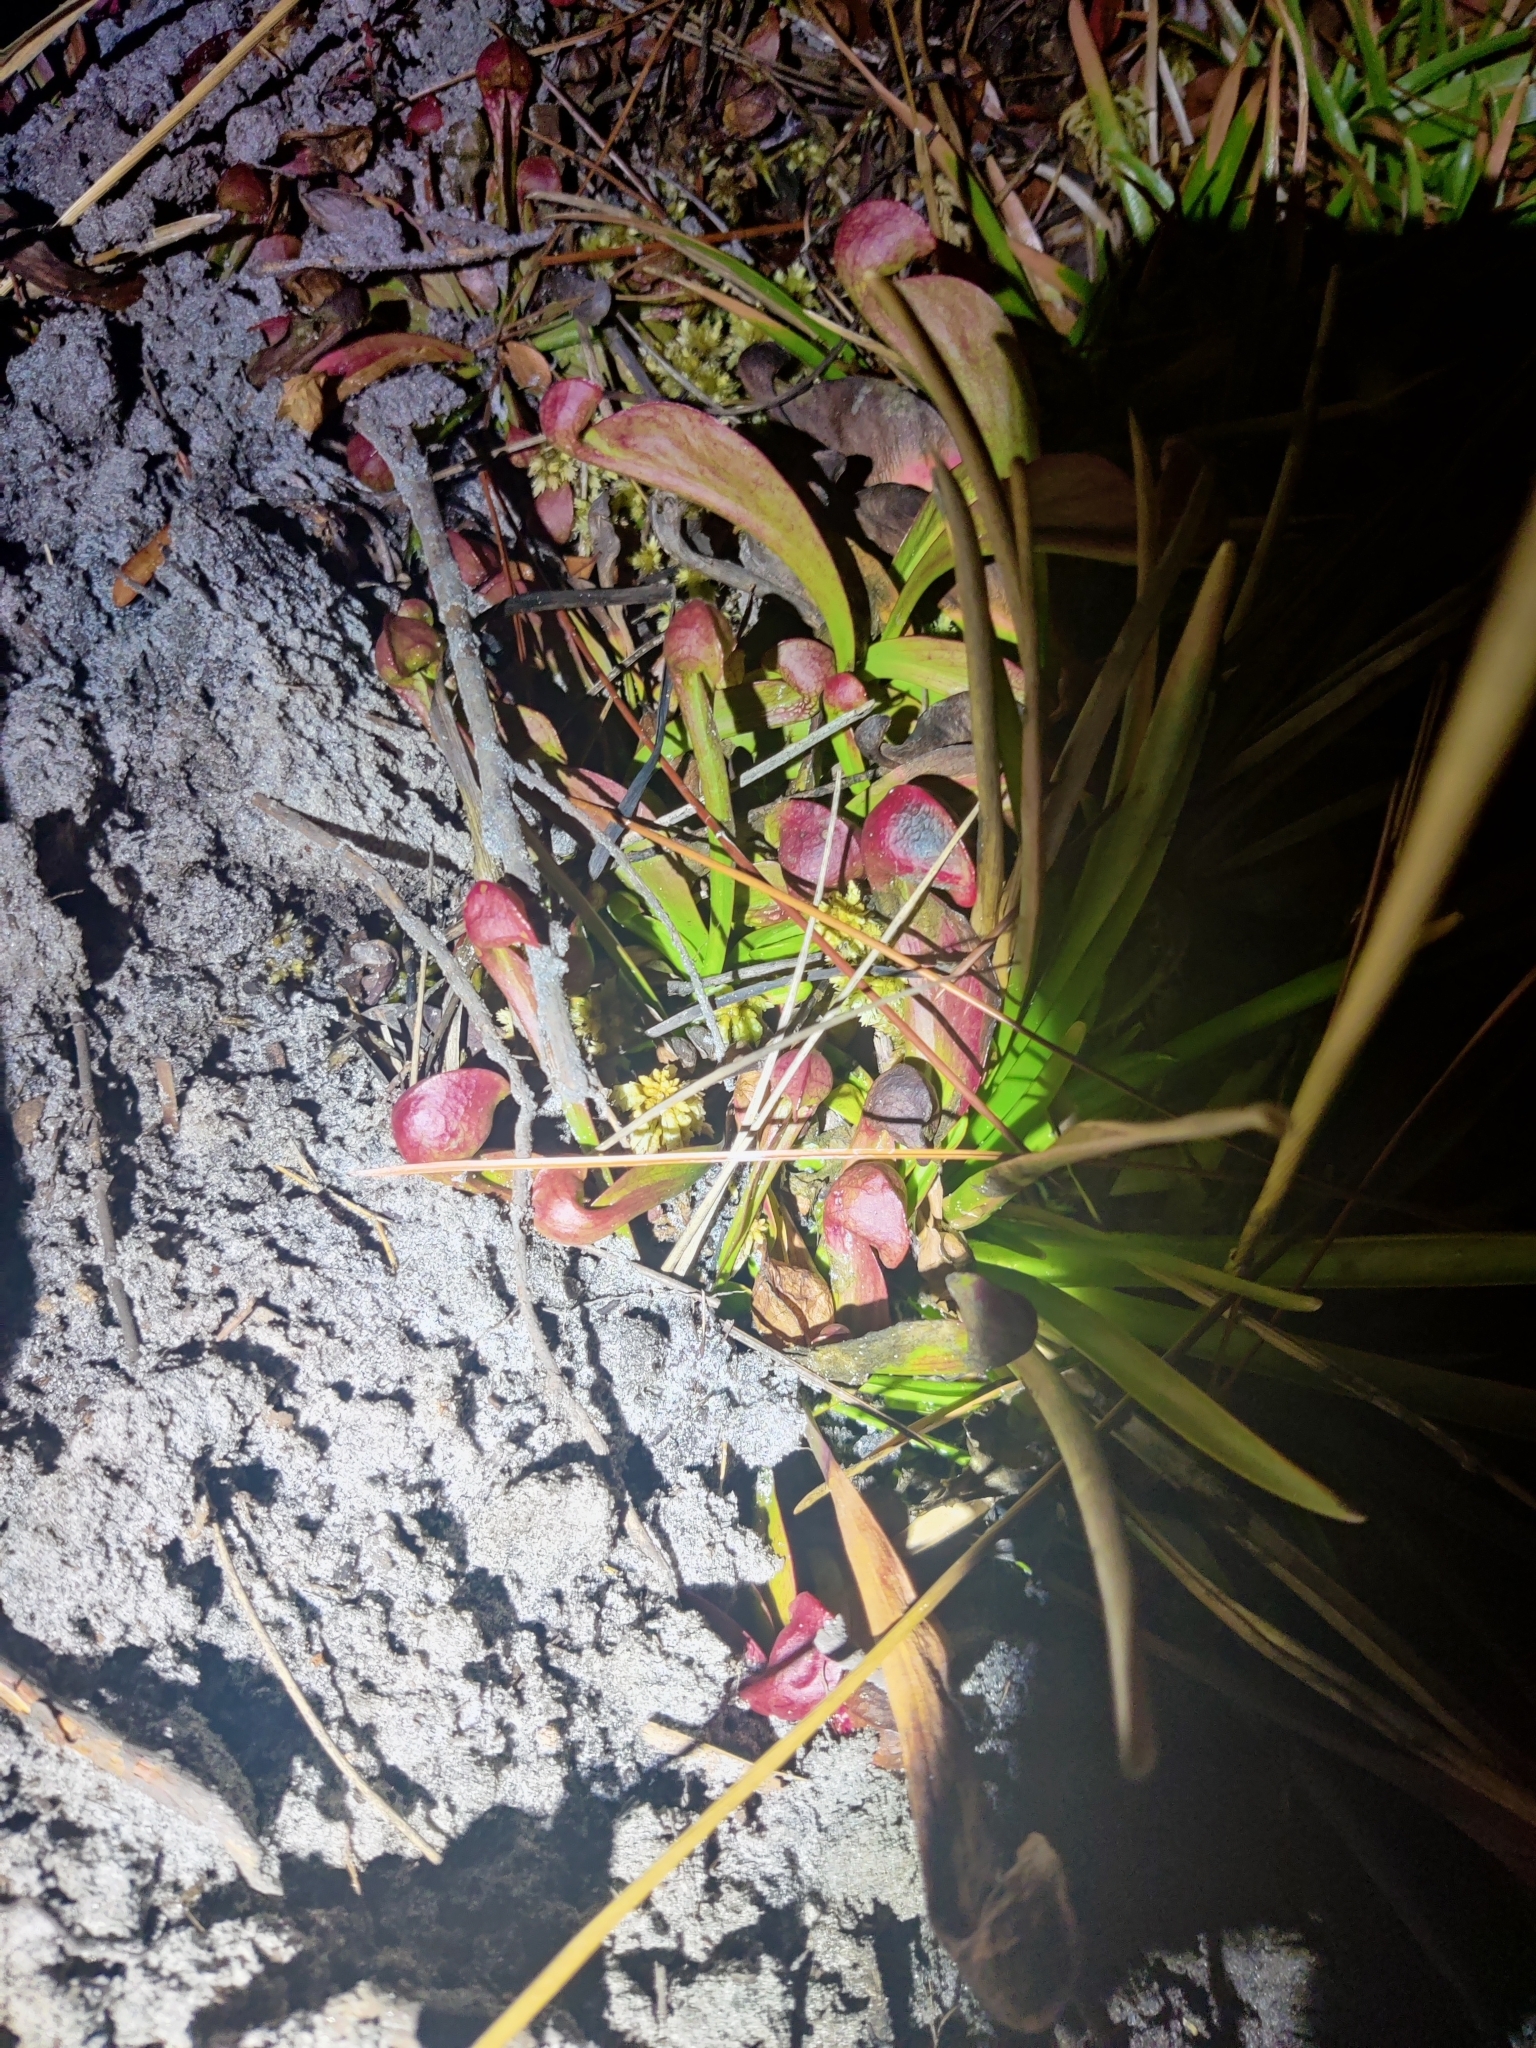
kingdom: Plantae
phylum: Tracheophyta
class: Magnoliopsida
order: Ericales
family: Sarraceniaceae
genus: Sarracenia
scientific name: Sarracenia psittacina
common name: Parrot pitcherplant
